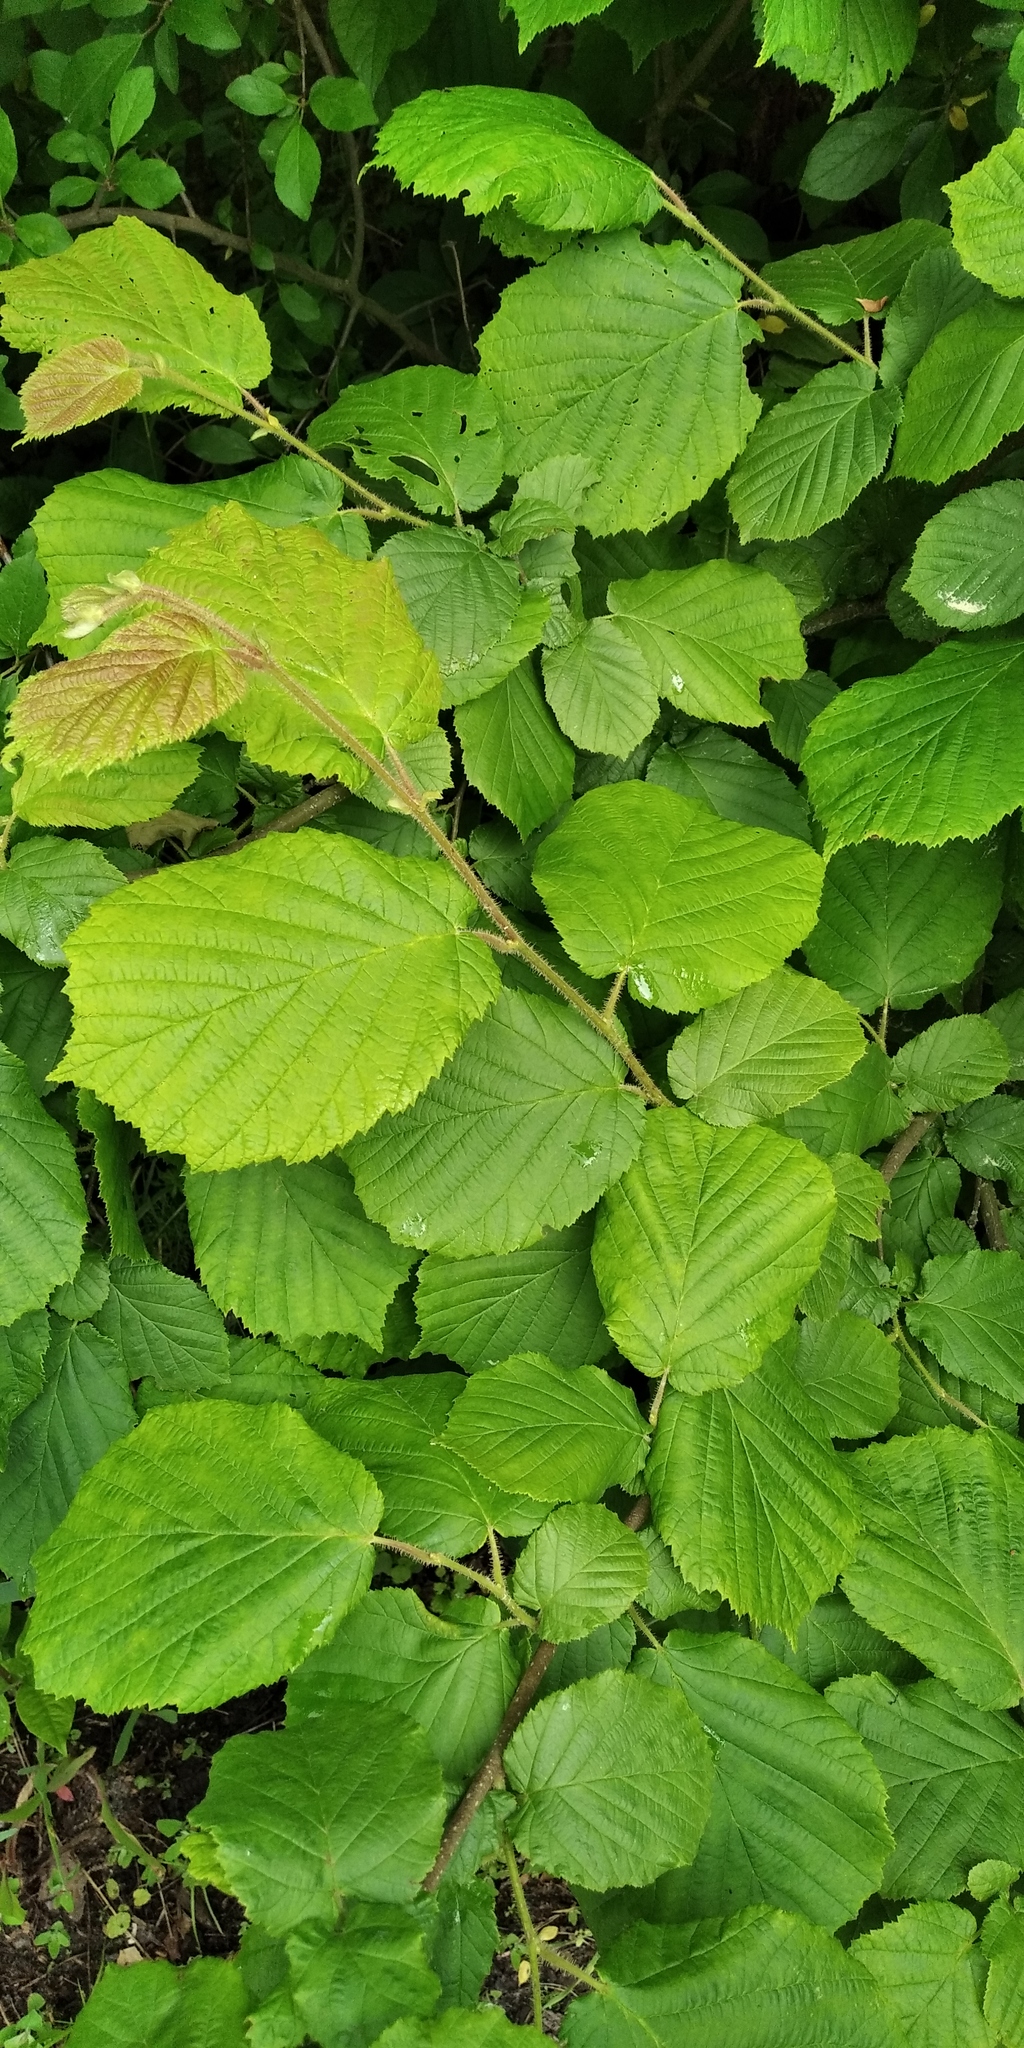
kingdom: Plantae
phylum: Tracheophyta
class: Magnoliopsida
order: Fagales
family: Betulaceae
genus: Corylus
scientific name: Corylus avellana
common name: European hazel
